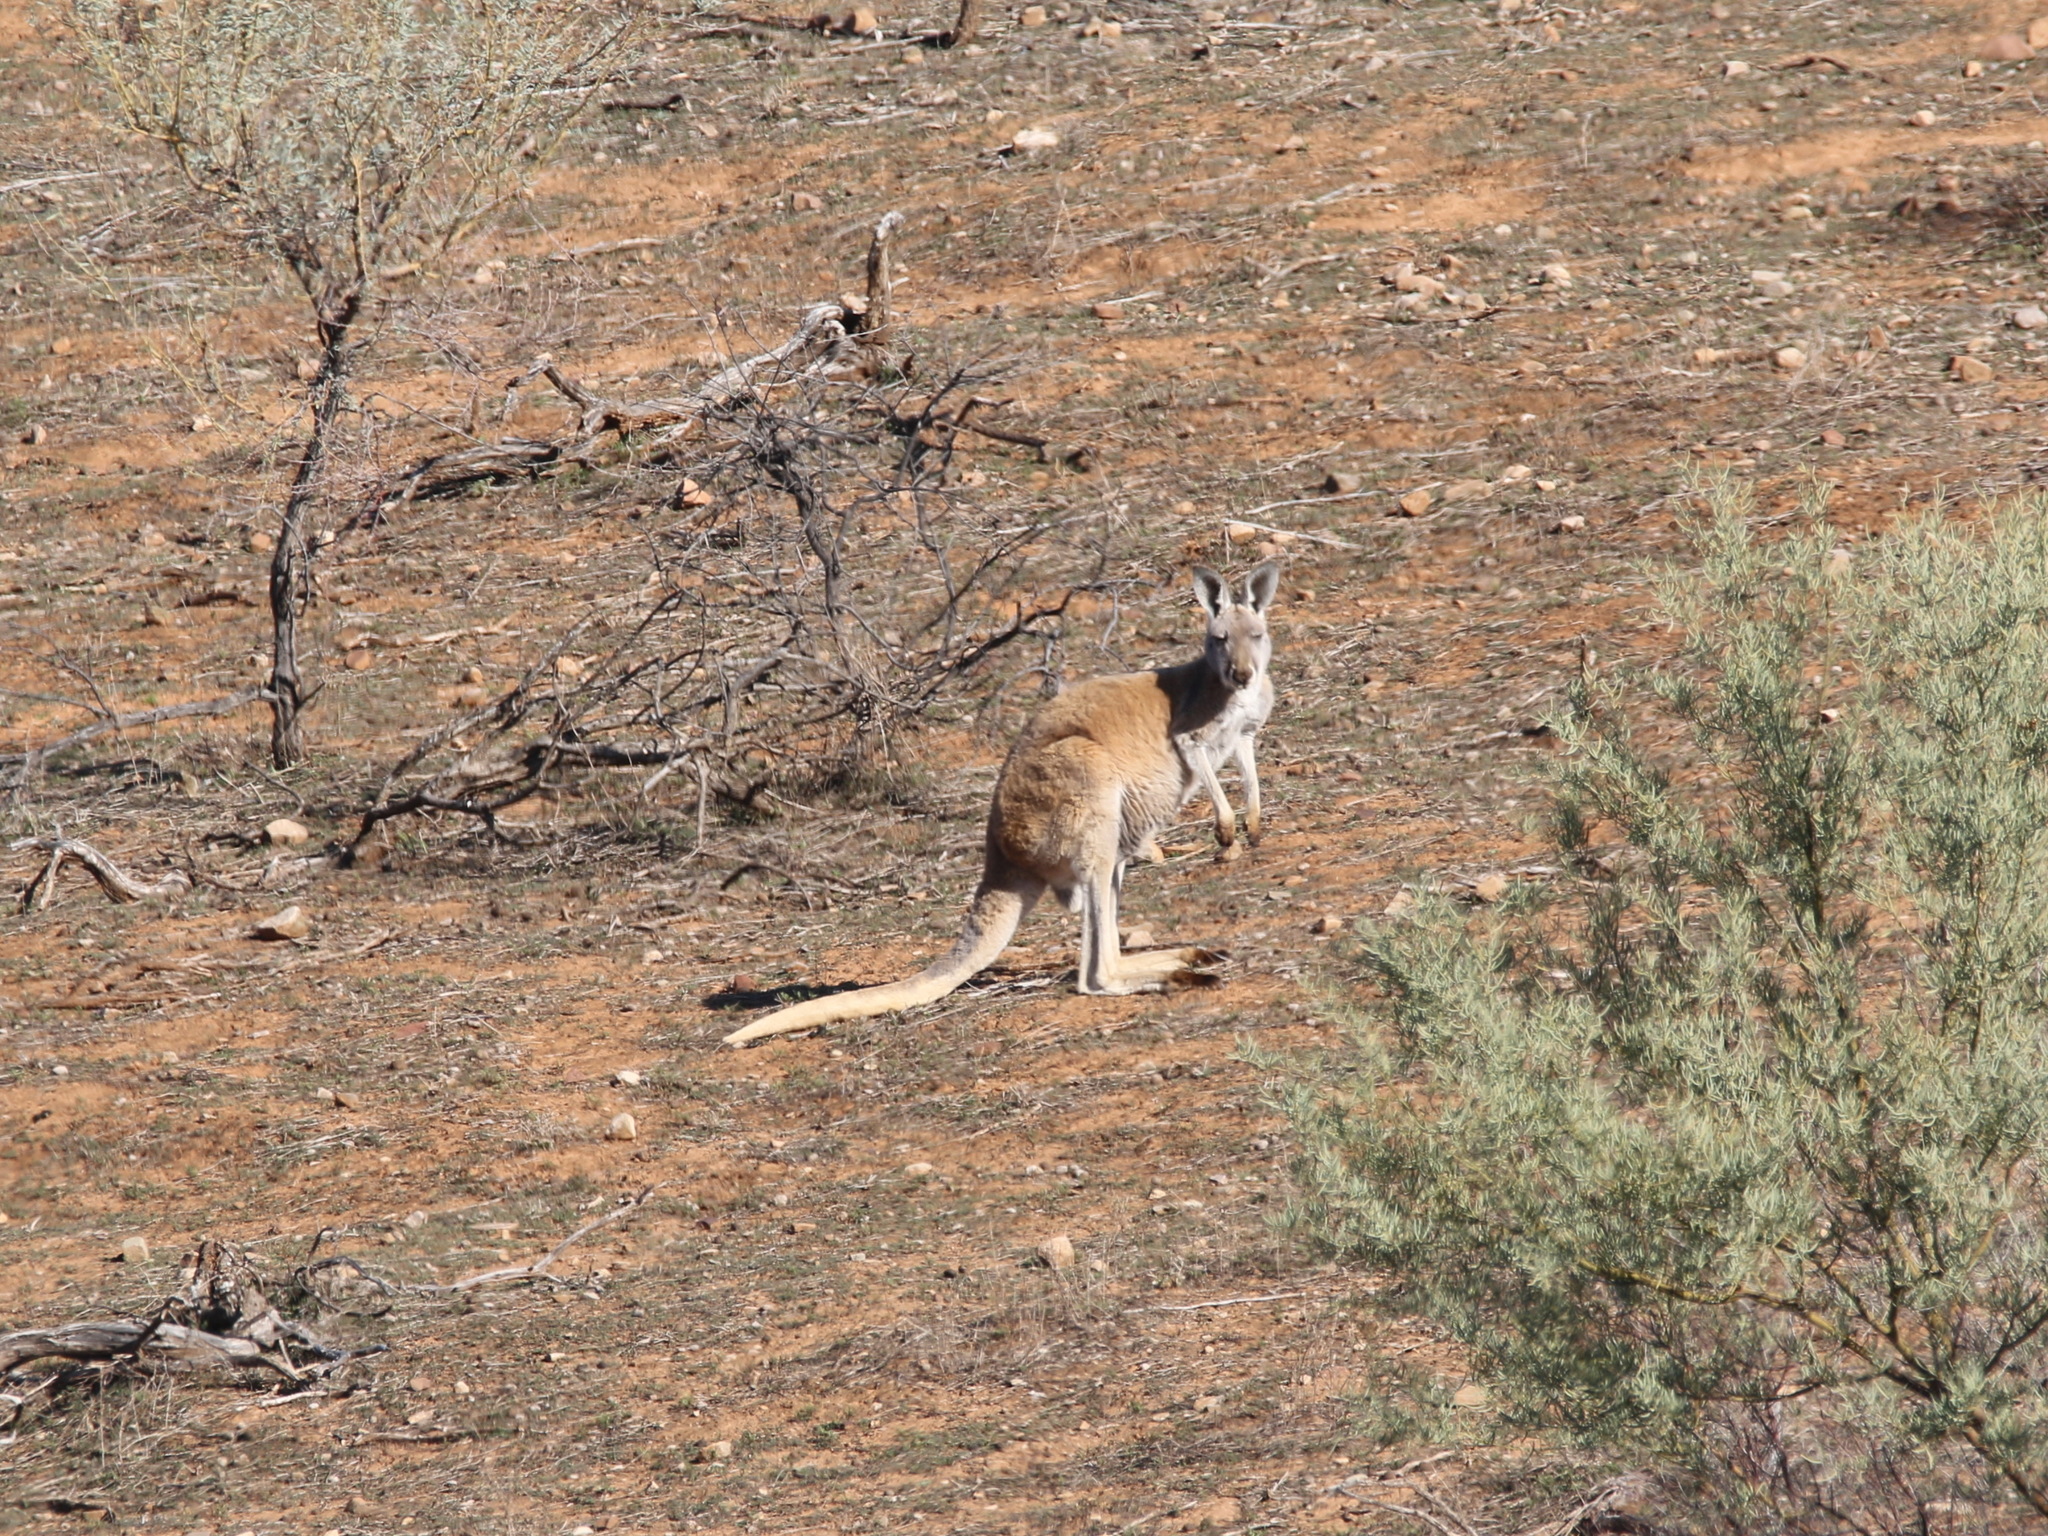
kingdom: Animalia
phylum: Chordata
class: Mammalia
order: Diprotodontia
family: Macropodidae
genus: Macropus
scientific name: Macropus robustus
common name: Eastern wallaroo
